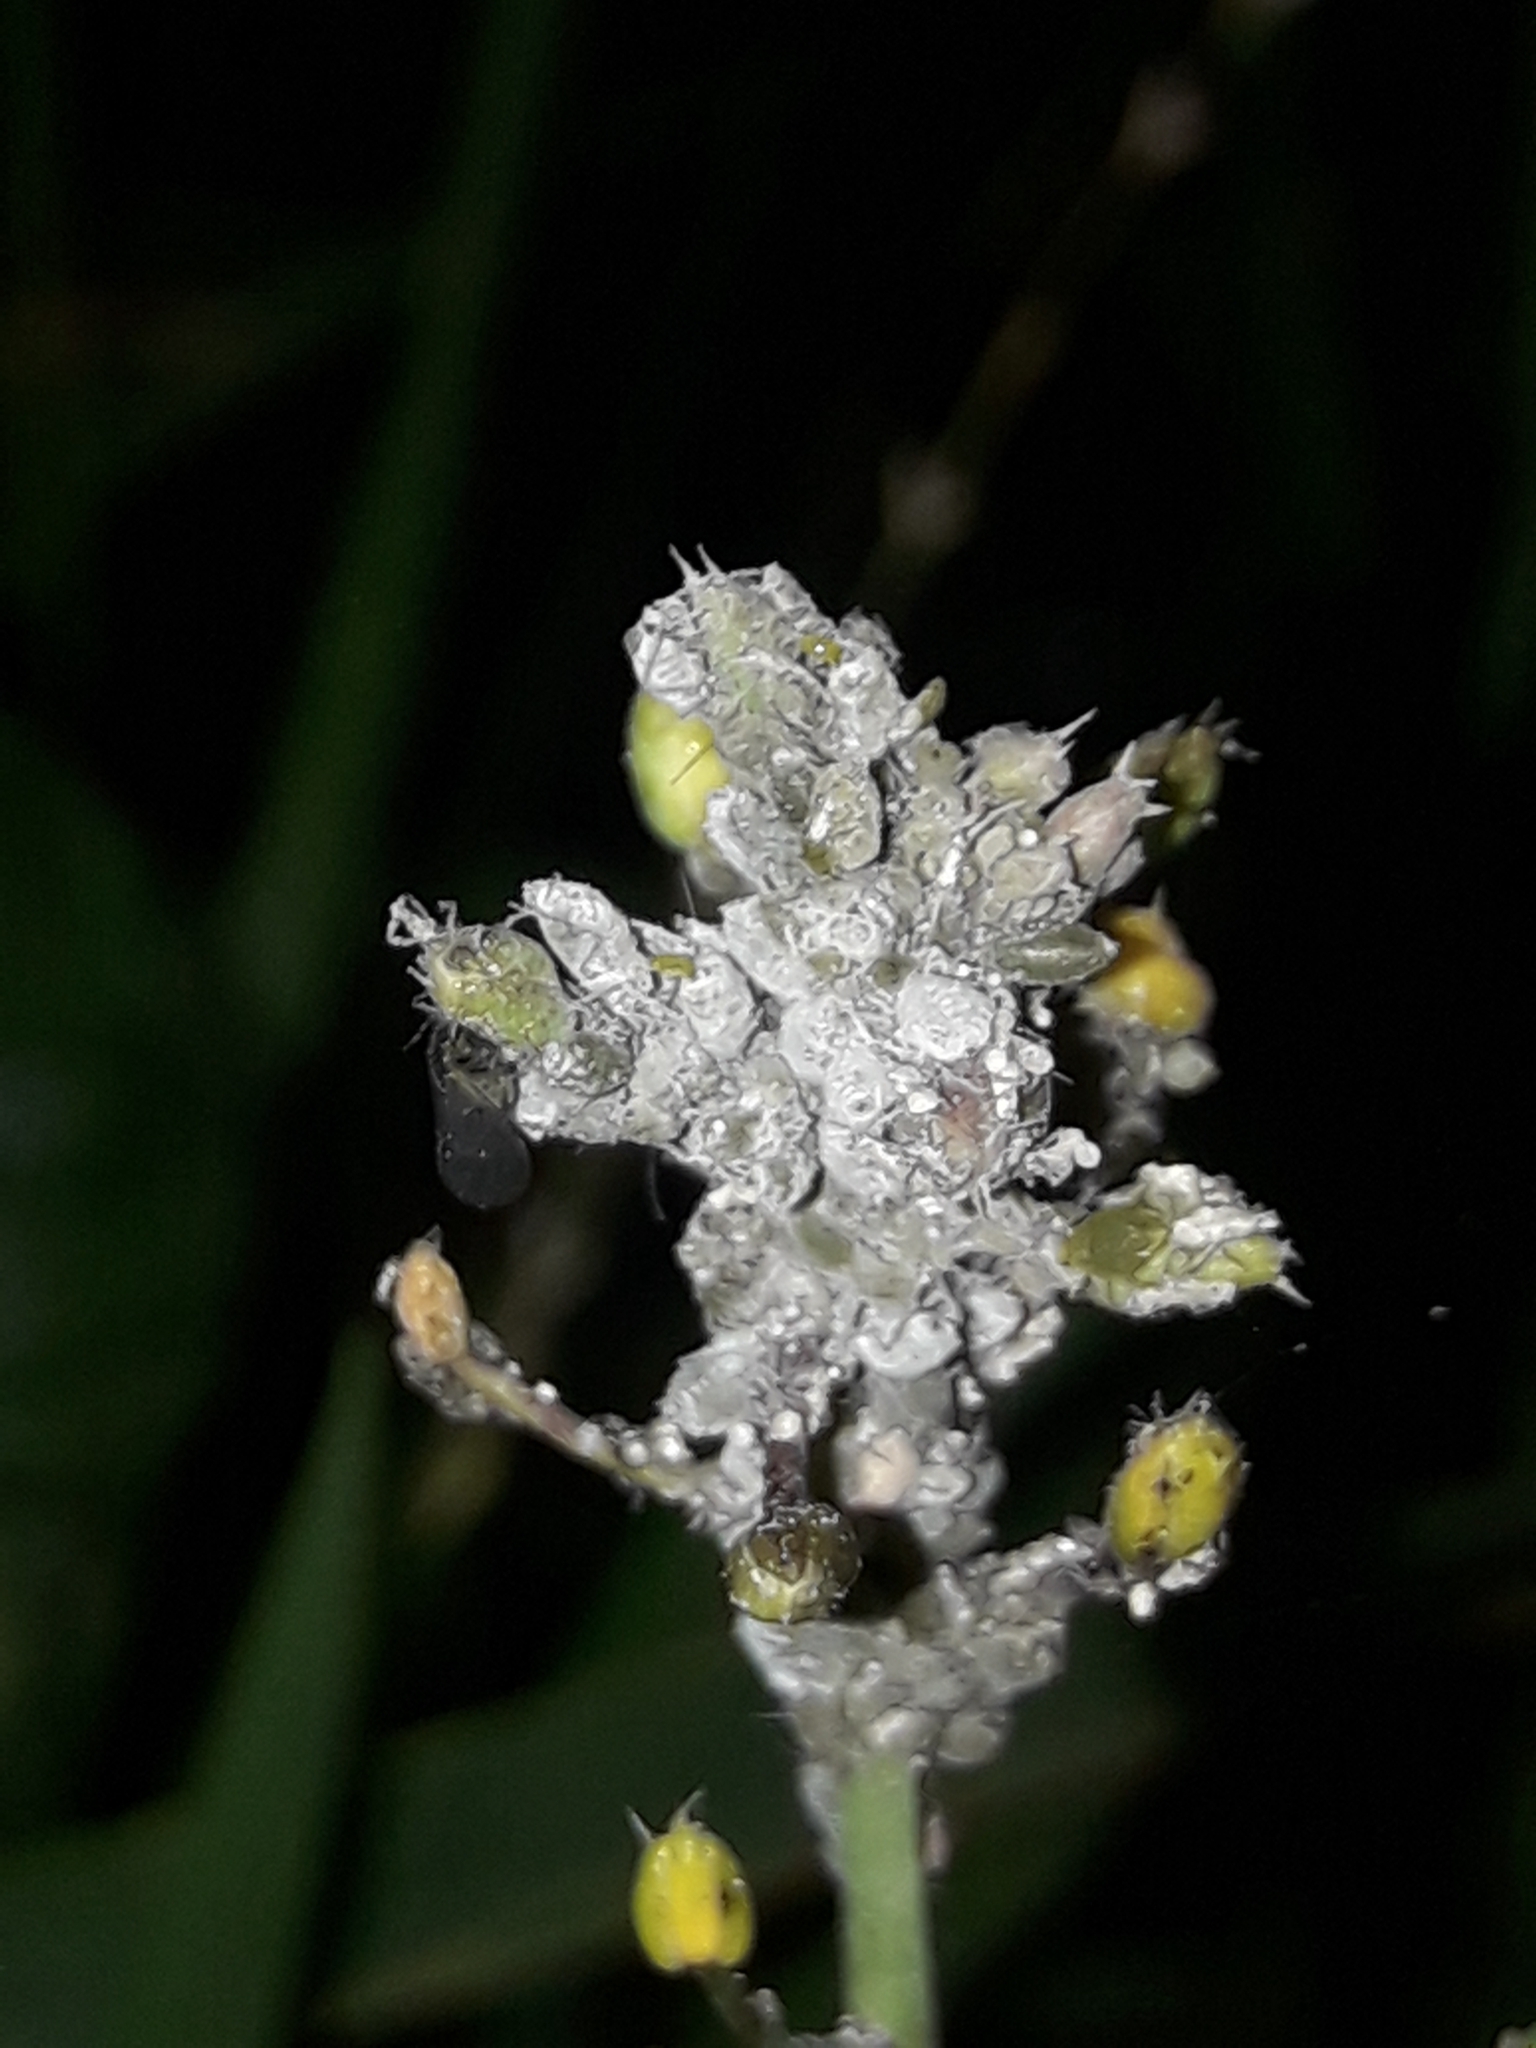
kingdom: Animalia
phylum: Arthropoda
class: Insecta
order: Hemiptera
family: Aphididae
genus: Brevicoryne
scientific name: Brevicoryne brassicae
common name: Cabbage aphid
